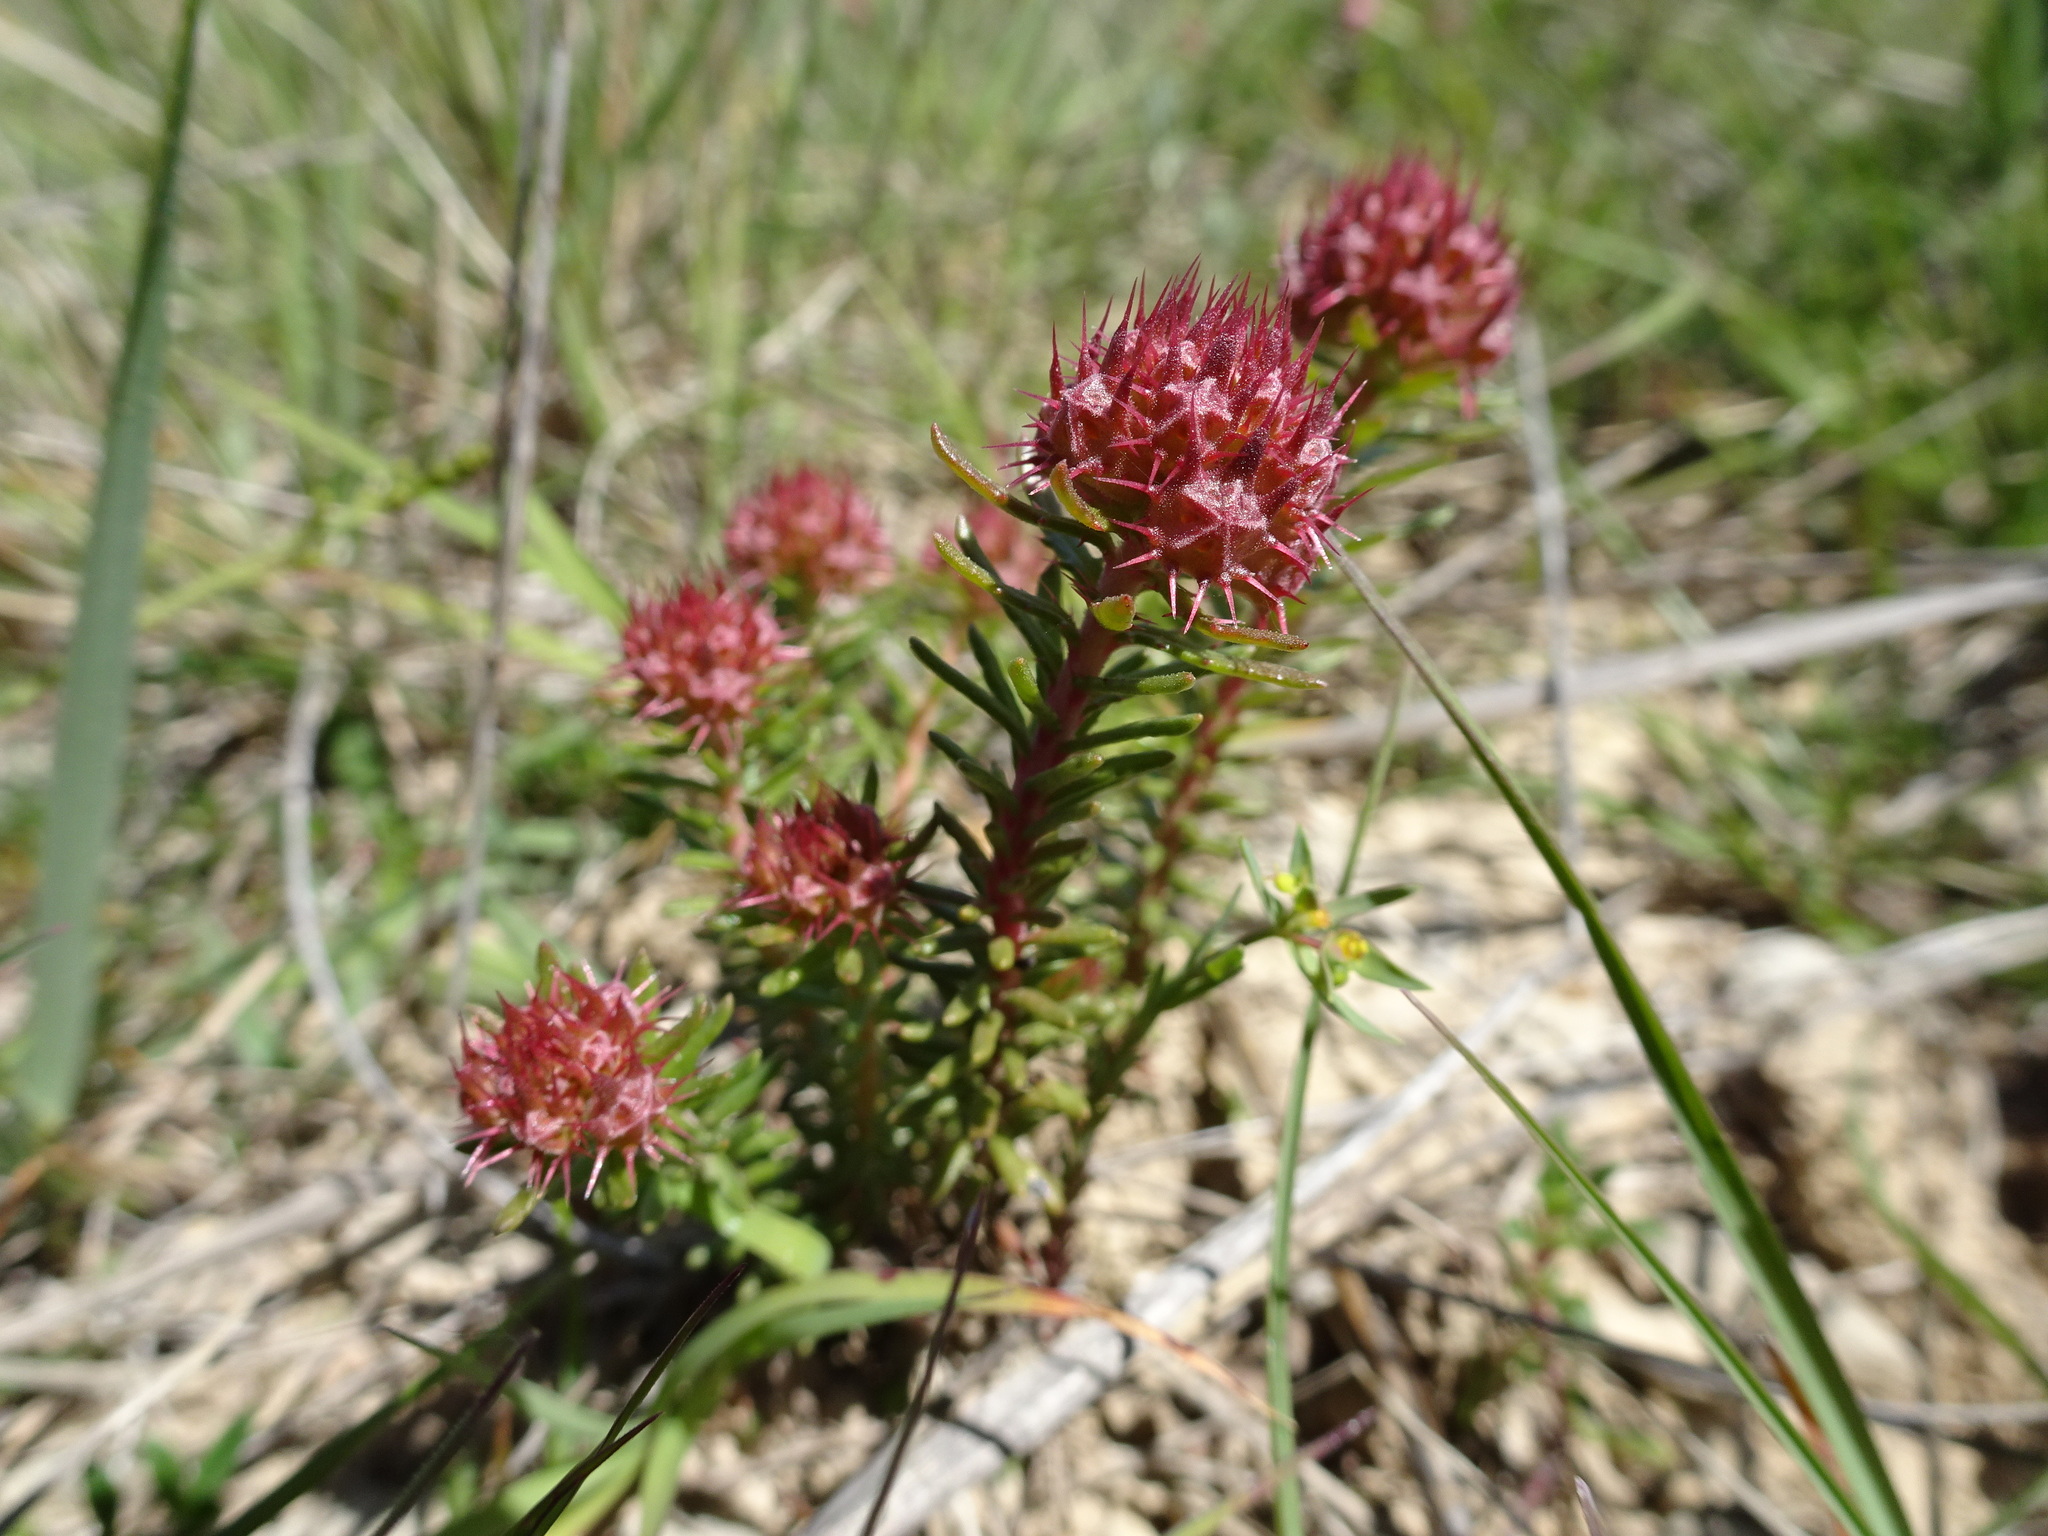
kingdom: Plantae
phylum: Tracheophyta
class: Magnoliopsida
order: Ericales
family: Primulaceae
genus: Coris
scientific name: Coris monspeliensis
